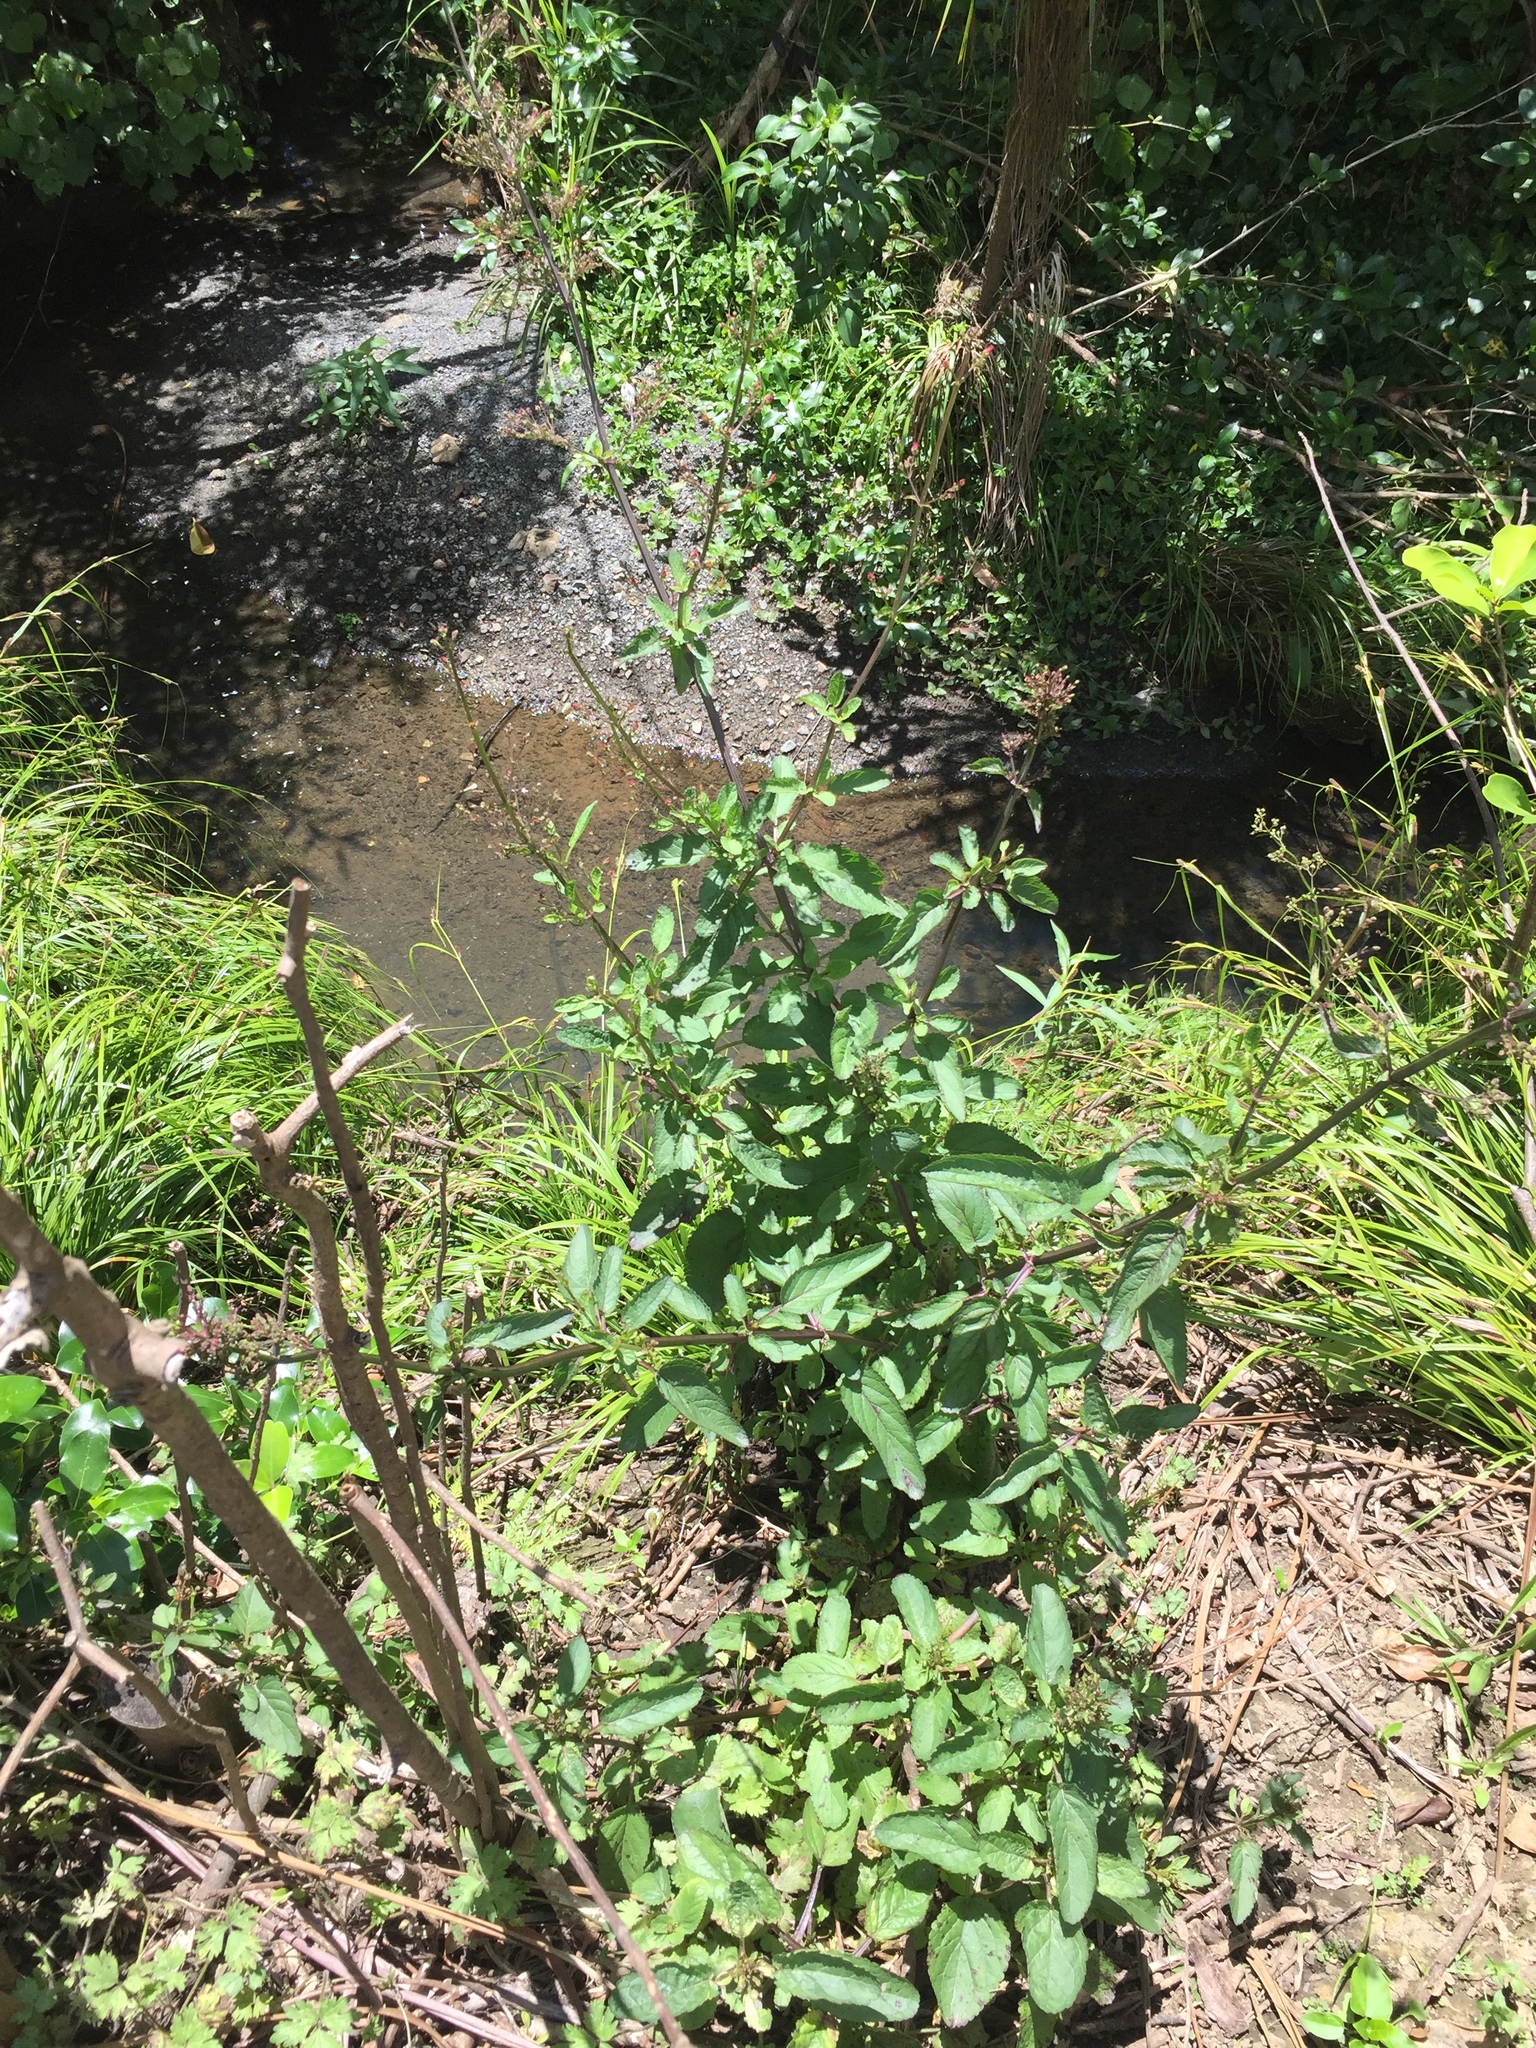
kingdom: Plantae
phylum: Tracheophyta
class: Magnoliopsida
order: Lamiales
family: Scrophulariaceae
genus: Scrophularia
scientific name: Scrophularia auriculata
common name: Water betony
